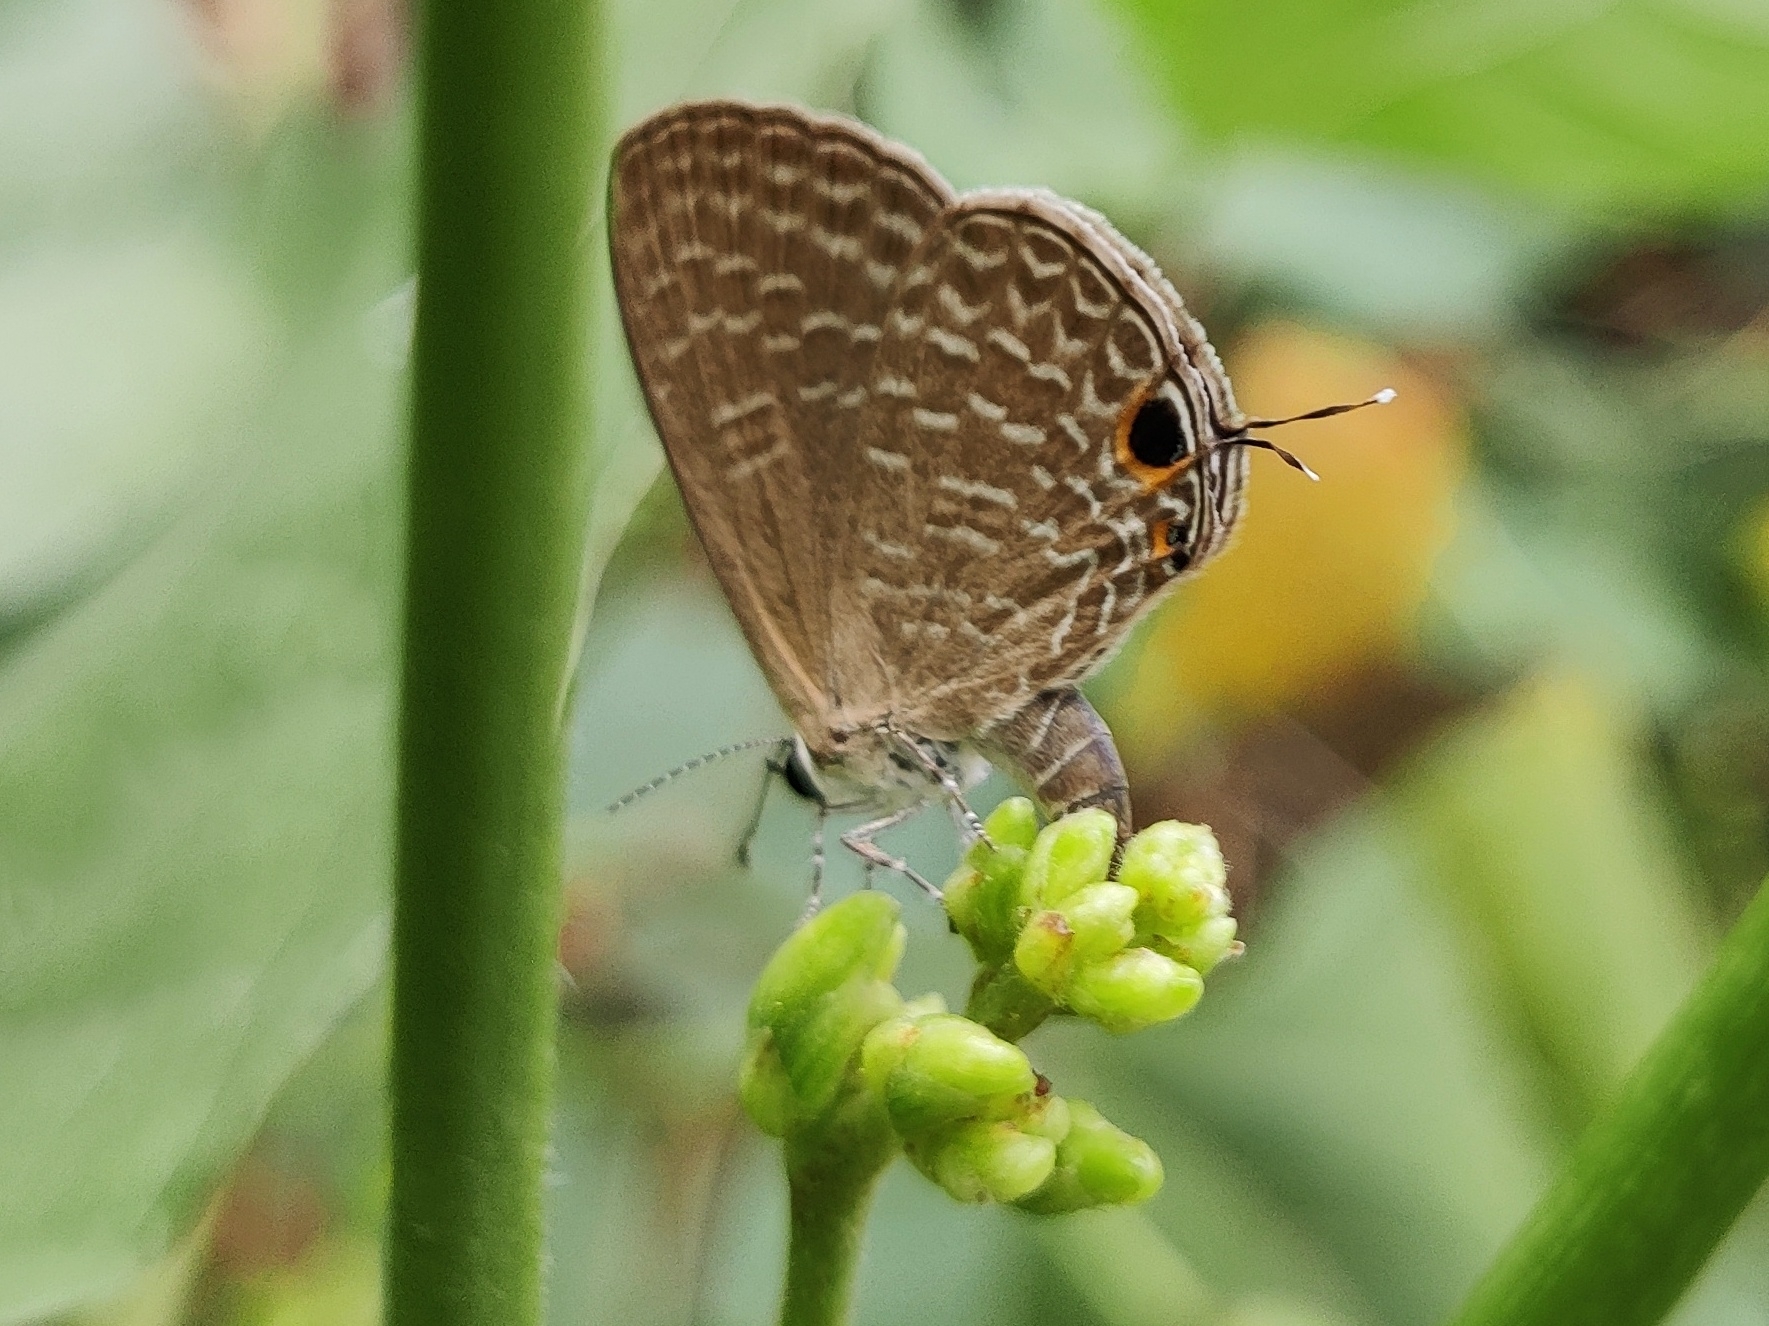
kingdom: Animalia
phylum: Arthropoda
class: Insecta
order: Lepidoptera
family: Lycaenidae
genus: Jamides
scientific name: Jamides bochus
